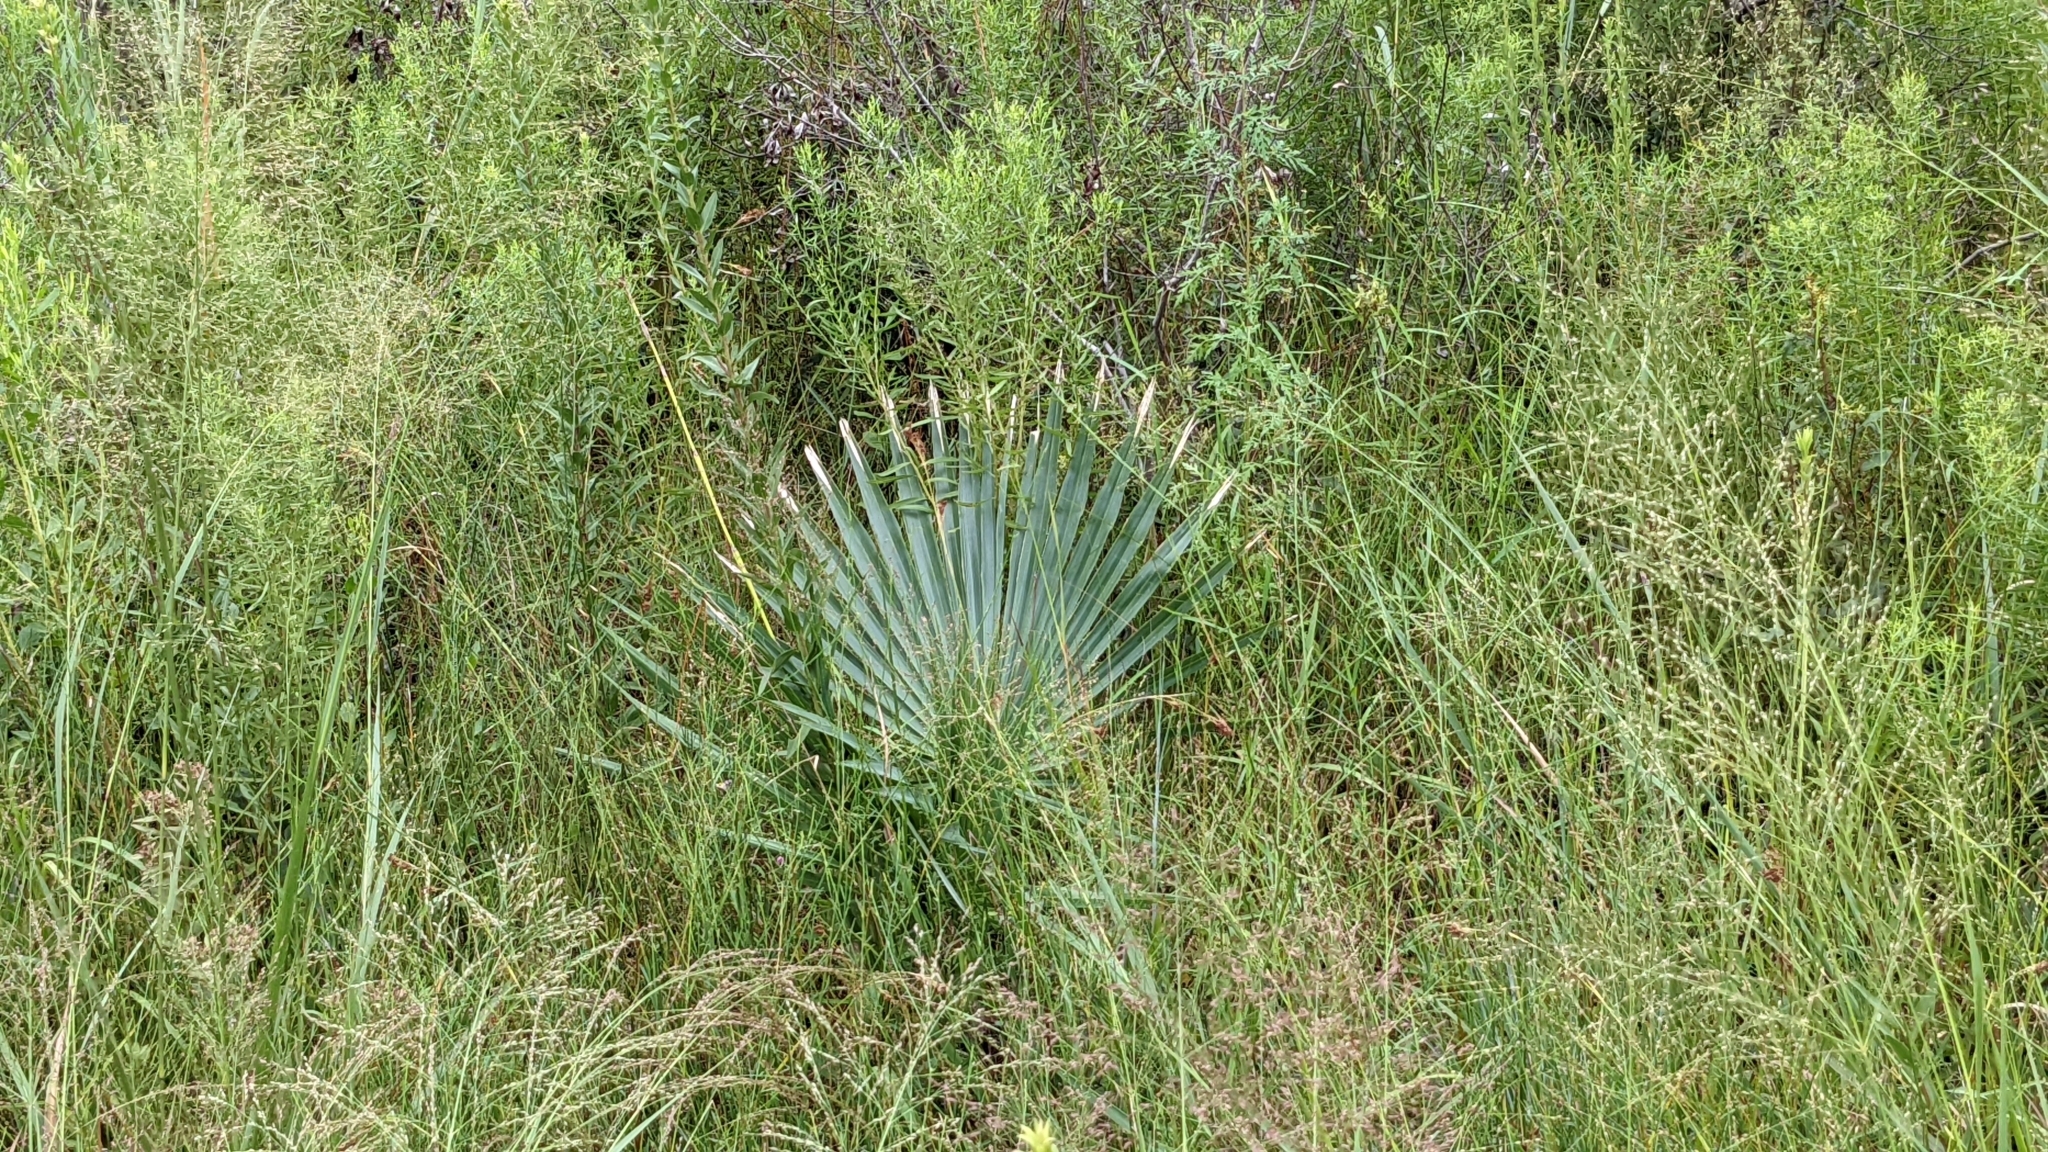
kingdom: Plantae
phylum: Tracheophyta
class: Liliopsida
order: Arecales
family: Arecaceae
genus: Sabal
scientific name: Sabal minor
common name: Dwarf palmetto
